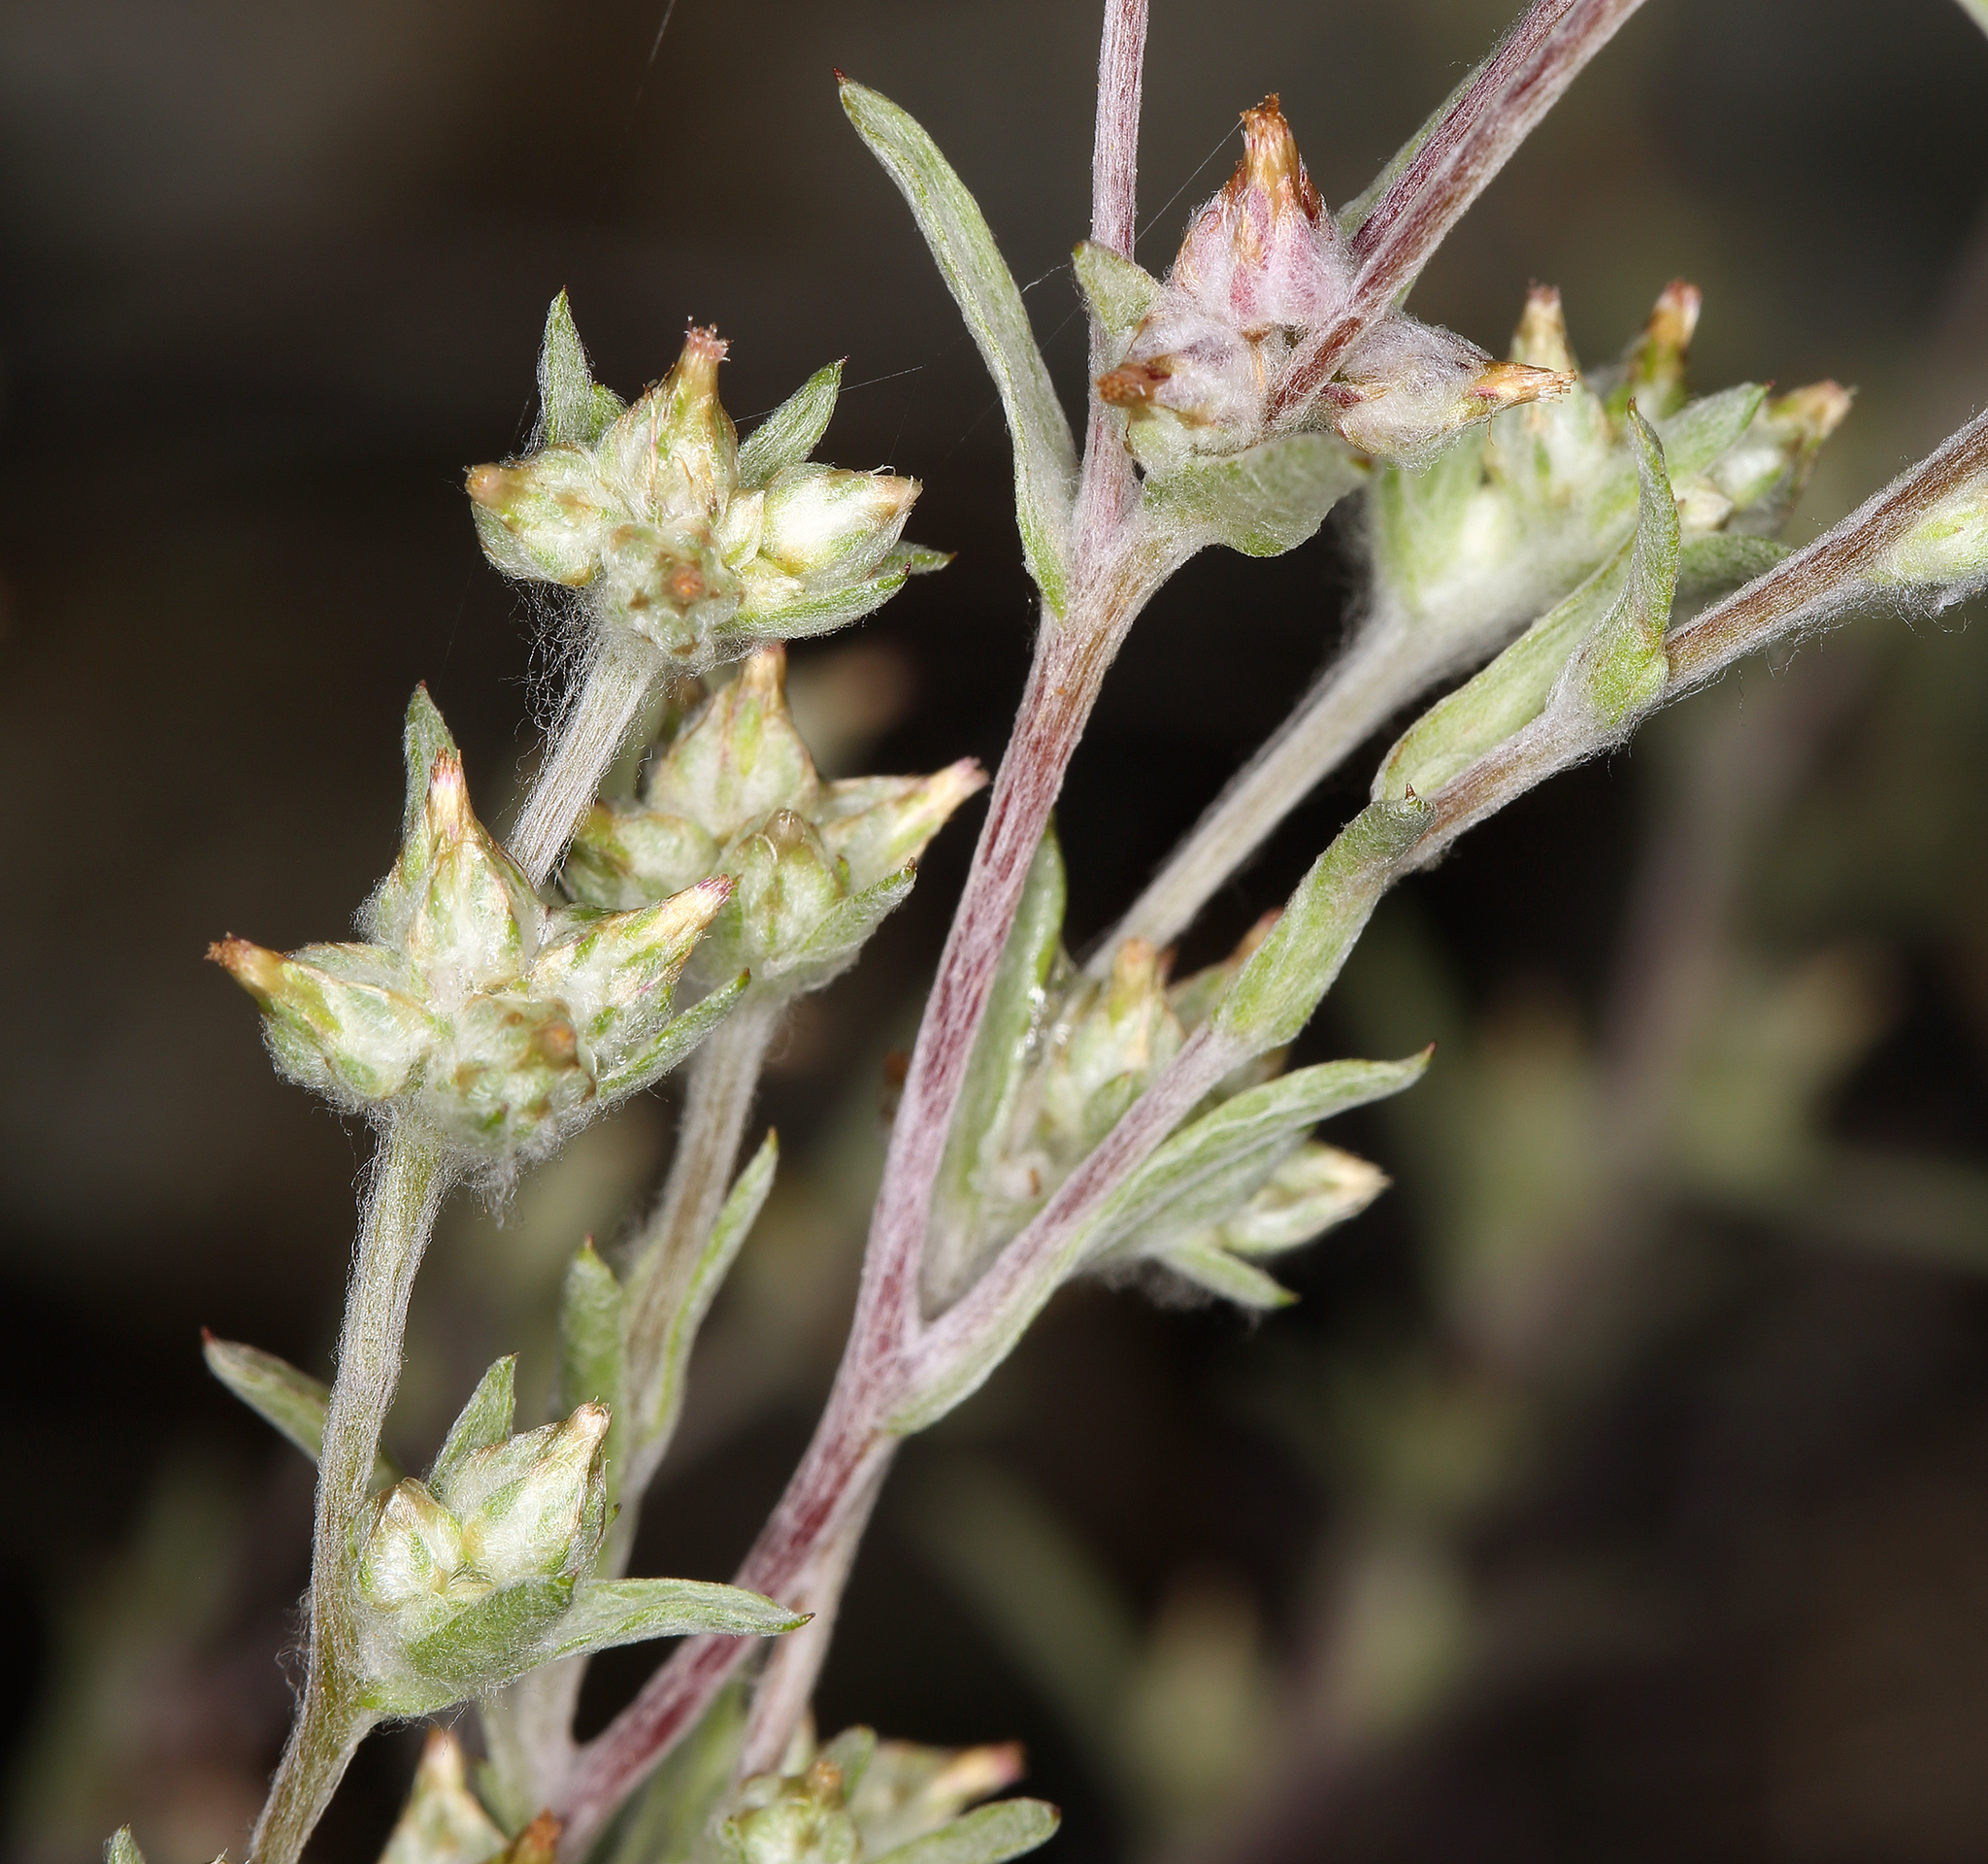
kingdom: Plantae
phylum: Tracheophyta
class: Magnoliopsida
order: Asterales
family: Asteraceae
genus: Logfia
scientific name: Logfia californica
